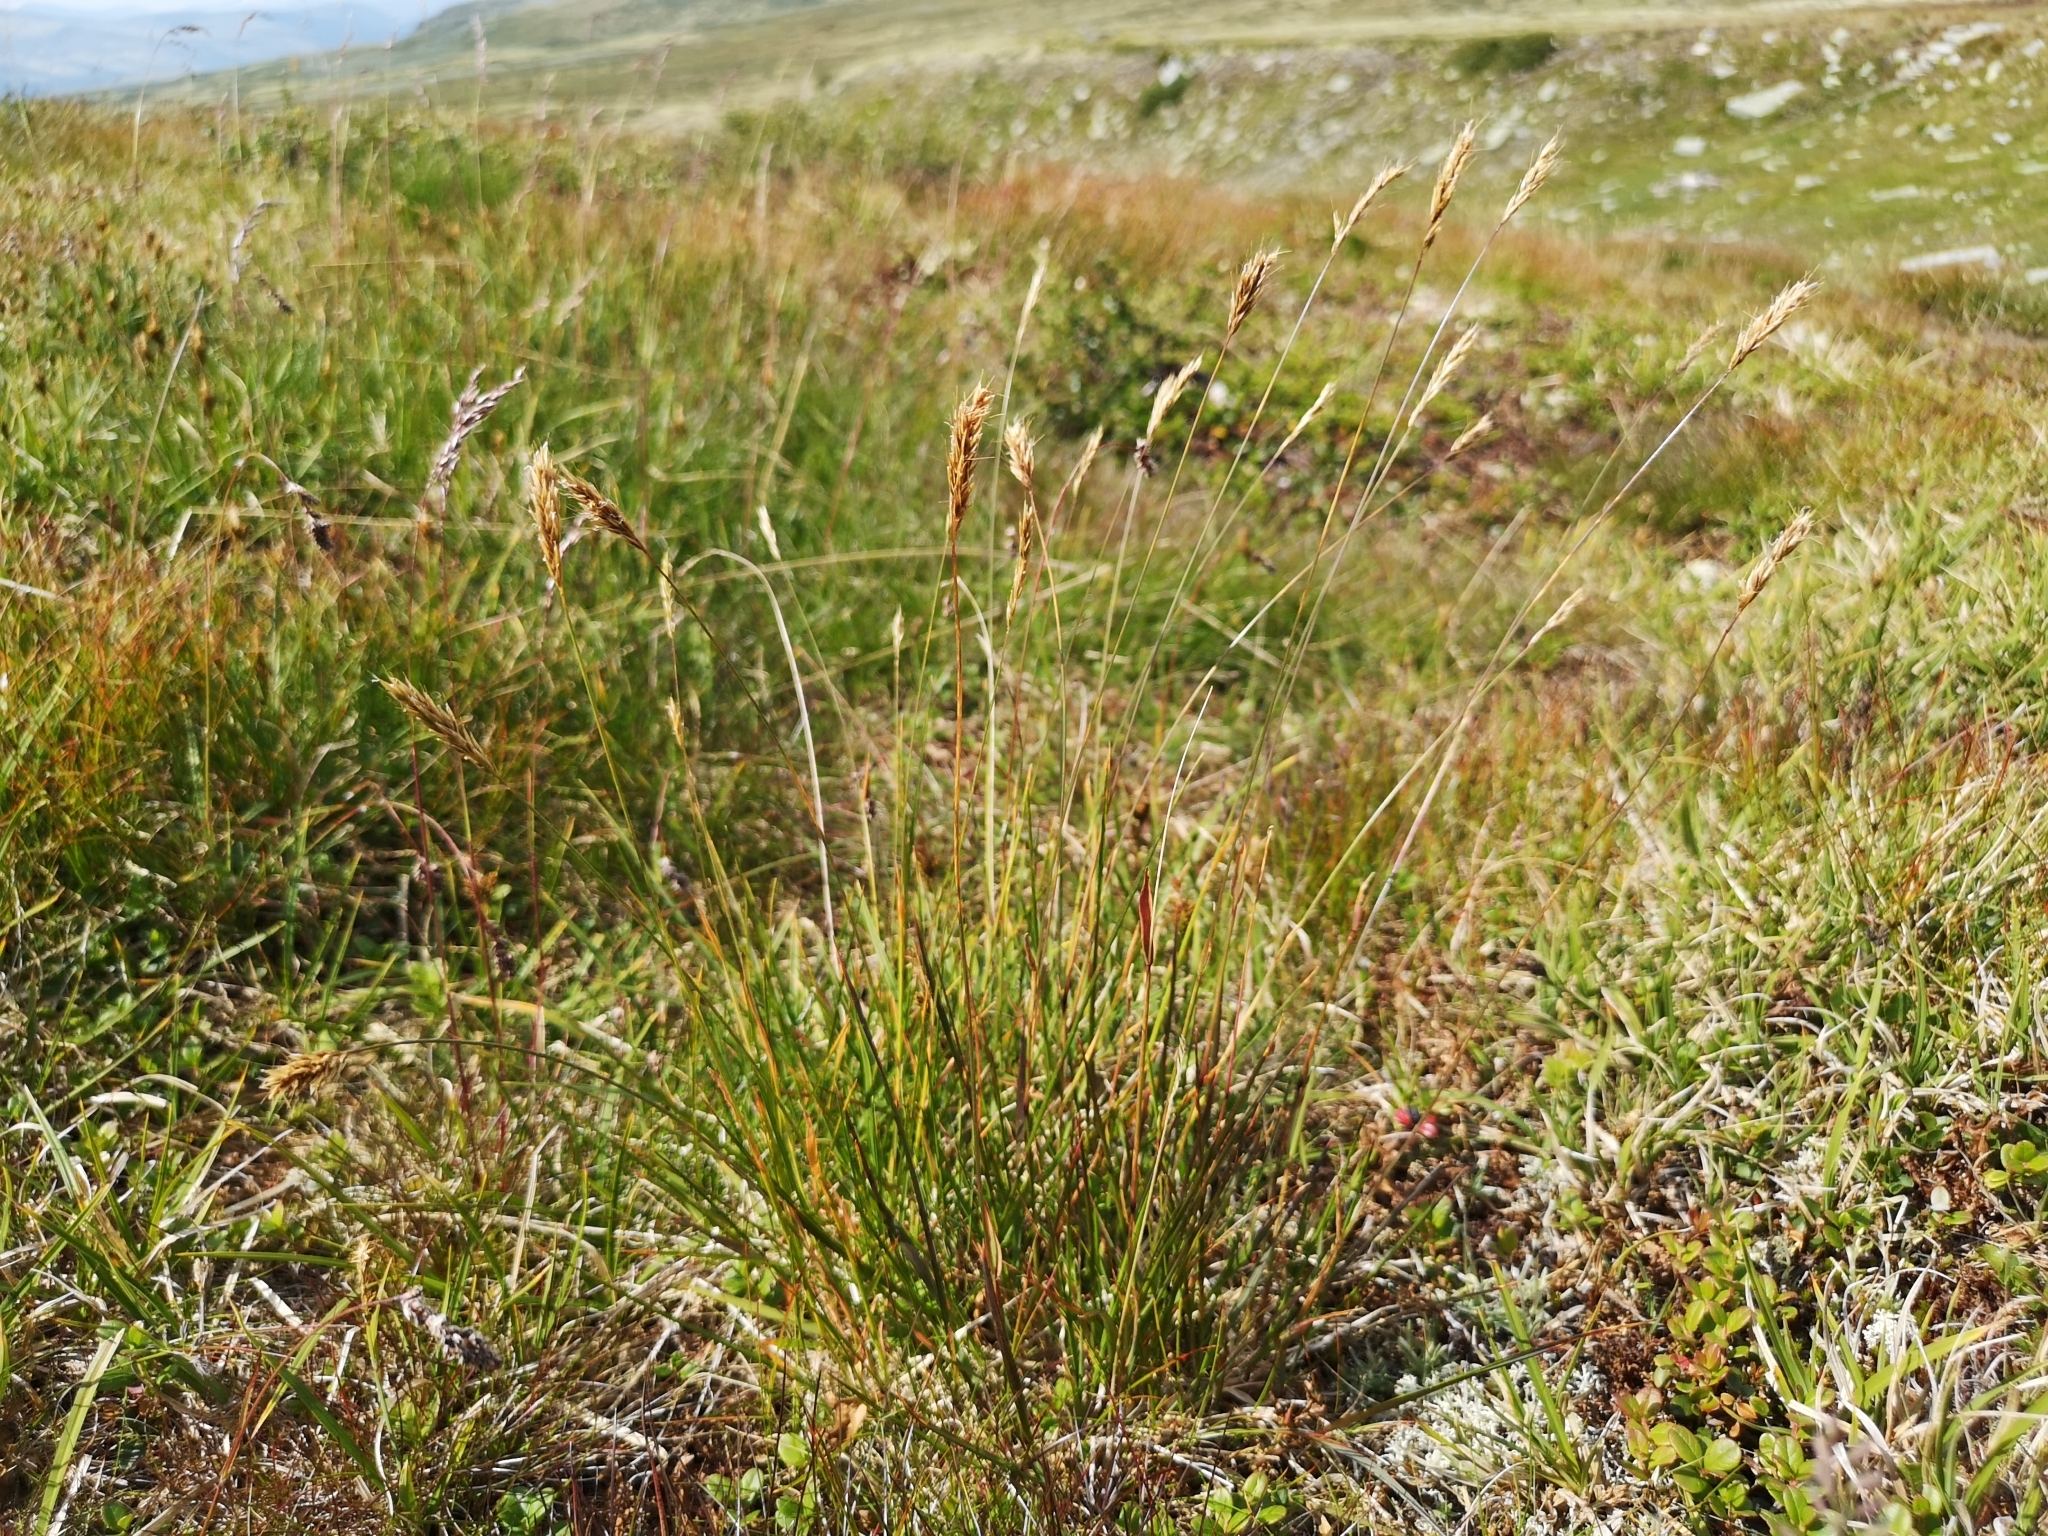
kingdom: Plantae
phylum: Tracheophyta
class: Liliopsida
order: Poales
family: Poaceae
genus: Anthoxanthum
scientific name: Anthoxanthum odoratum
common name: Sweet vernalgrass
